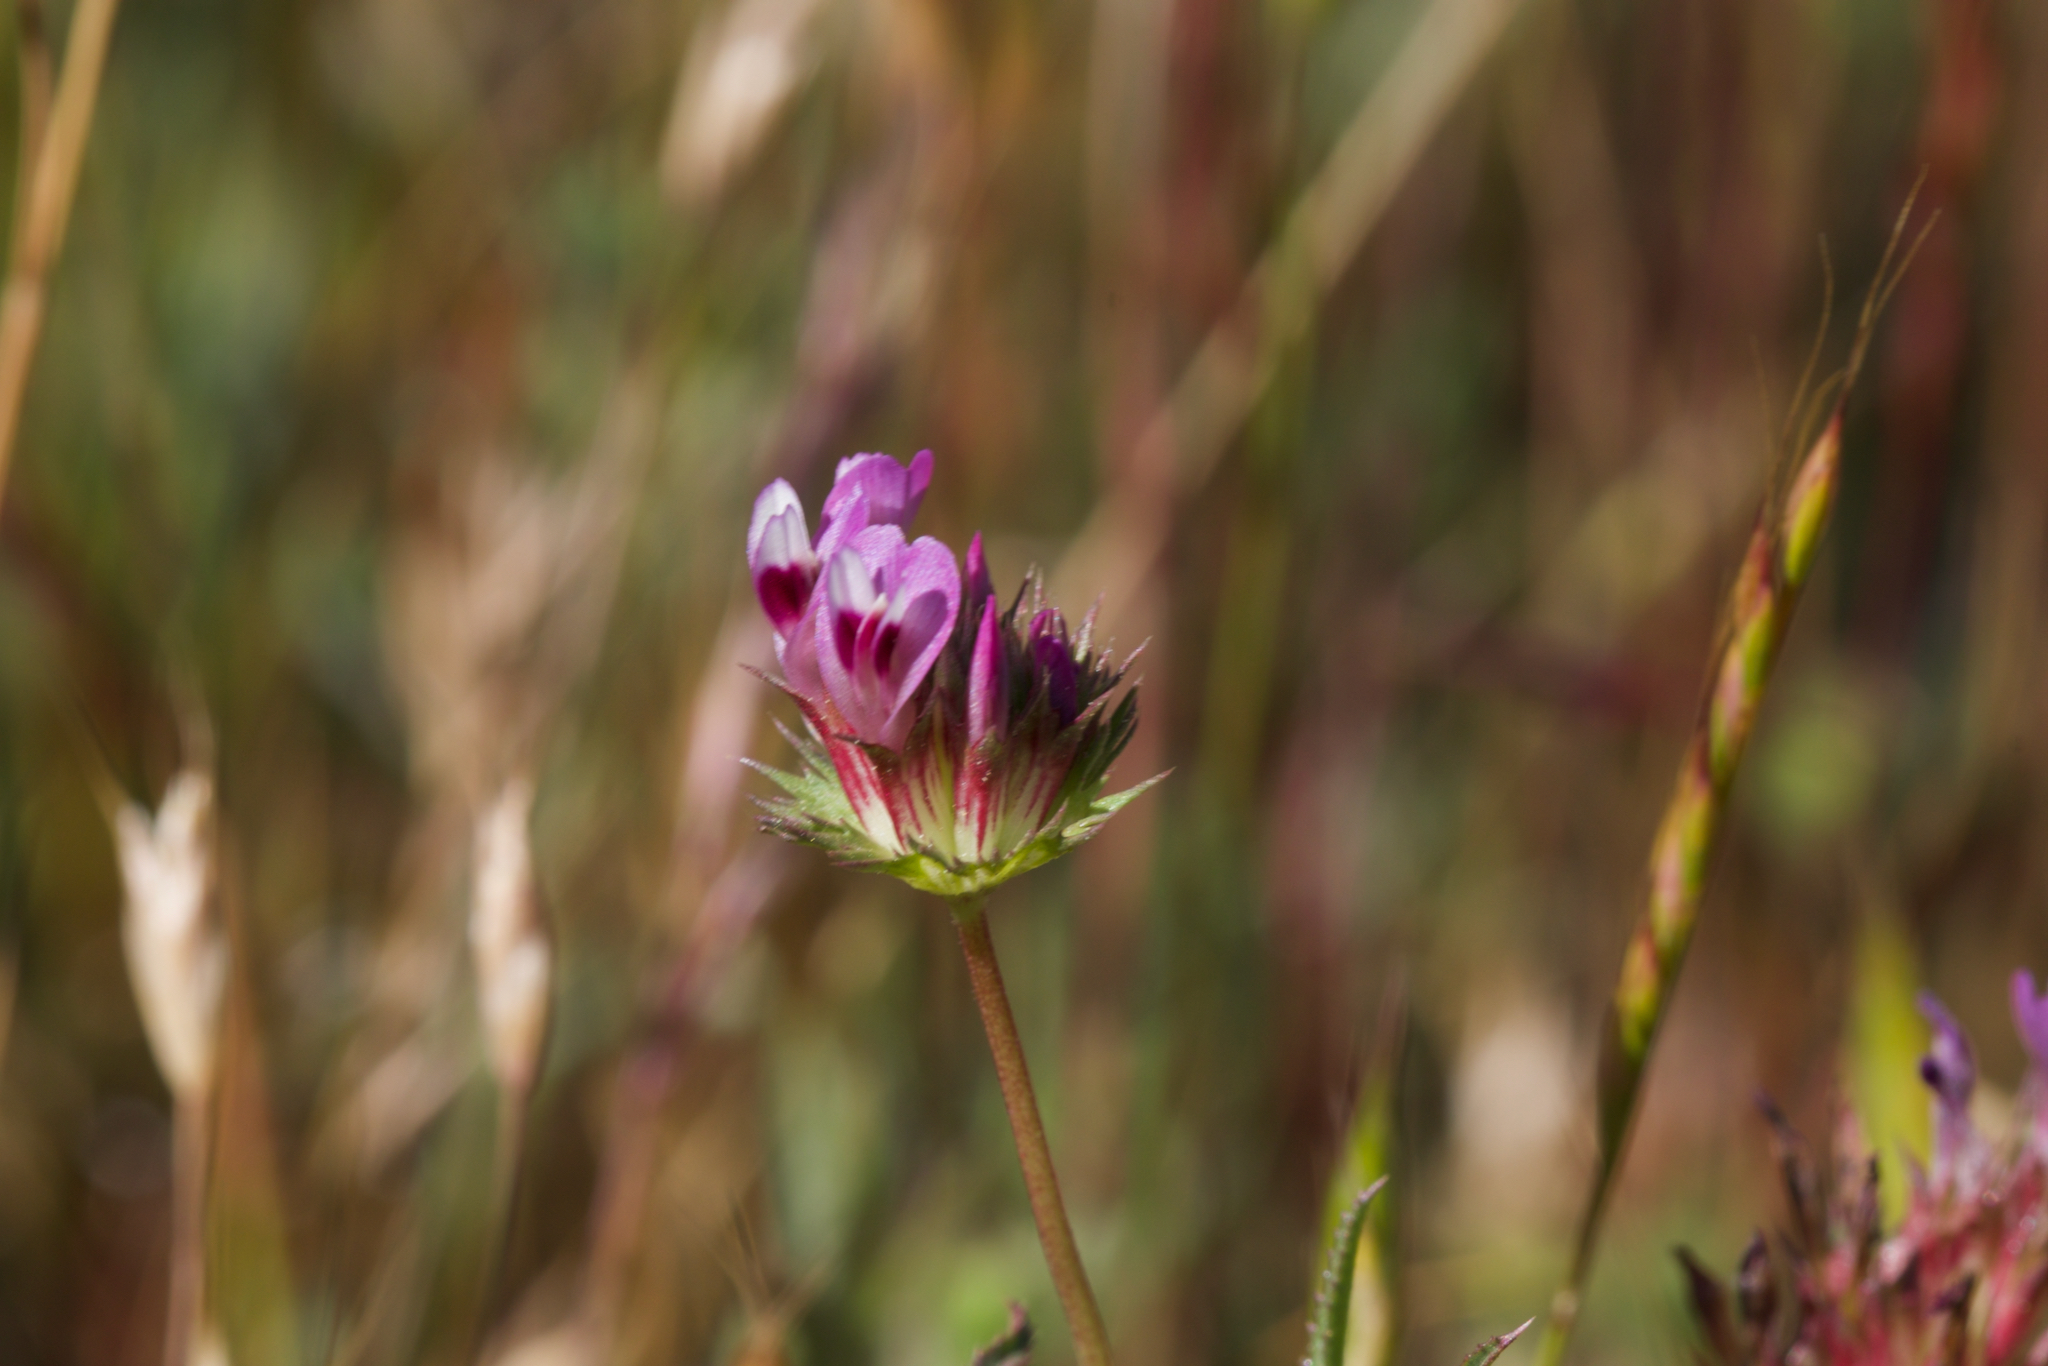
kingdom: Plantae
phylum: Tracheophyta
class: Magnoliopsida
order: Fabales
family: Fabaceae
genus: Trifolium
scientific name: Trifolium willdenovii
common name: Tomcat clover
